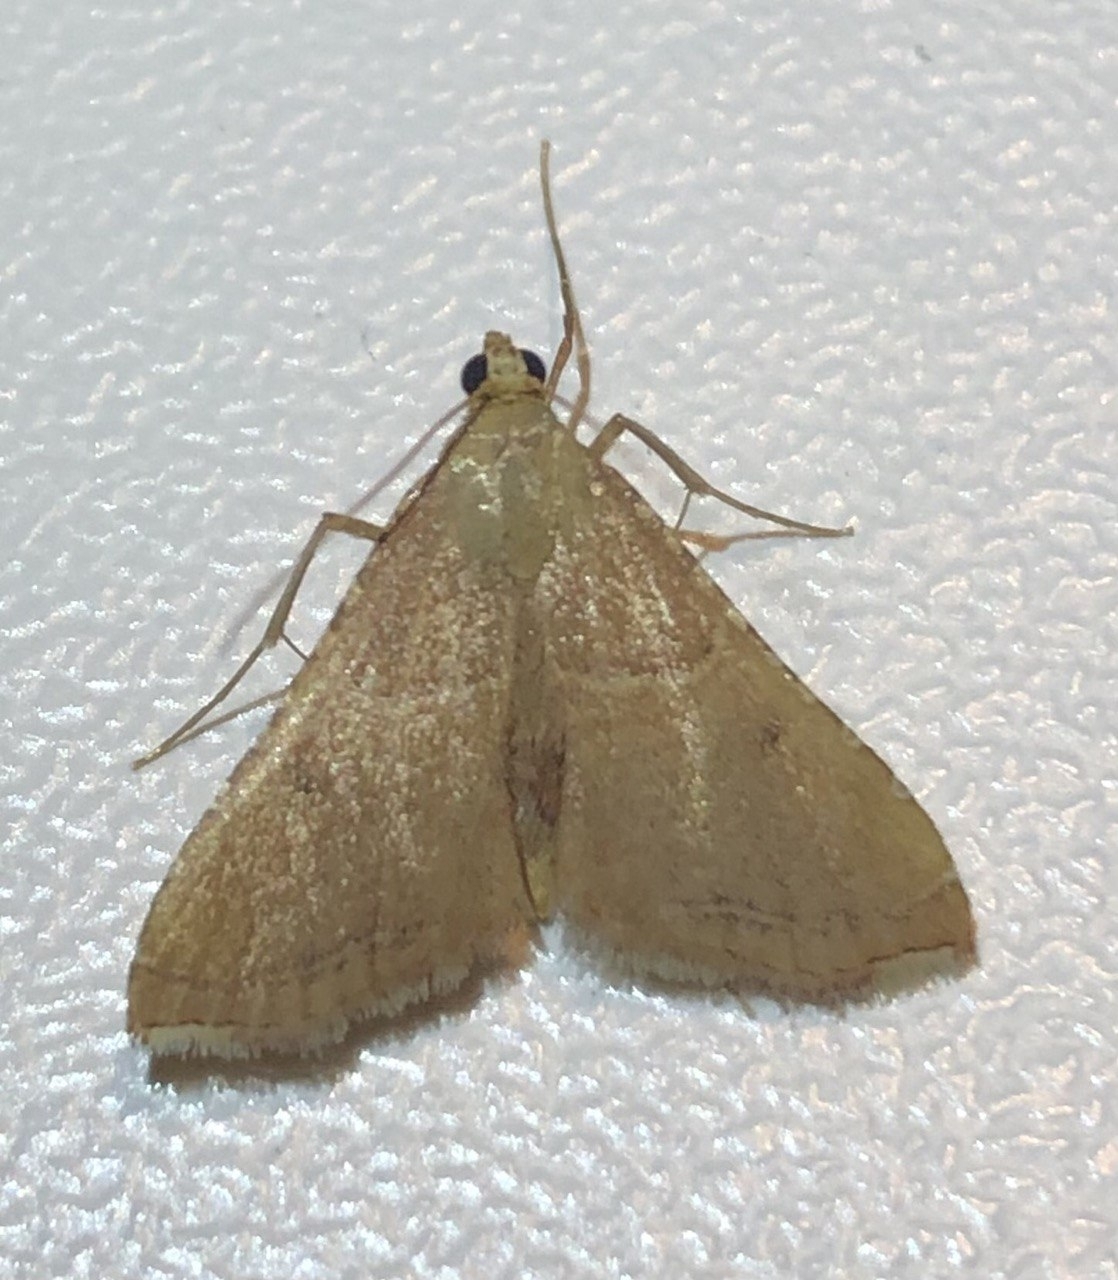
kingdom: Animalia
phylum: Arthropoda
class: Insecta
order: Lepidoptera
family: Pyralidae
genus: Endotricha
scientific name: Endotricha flammealis
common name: Rosy tabby
